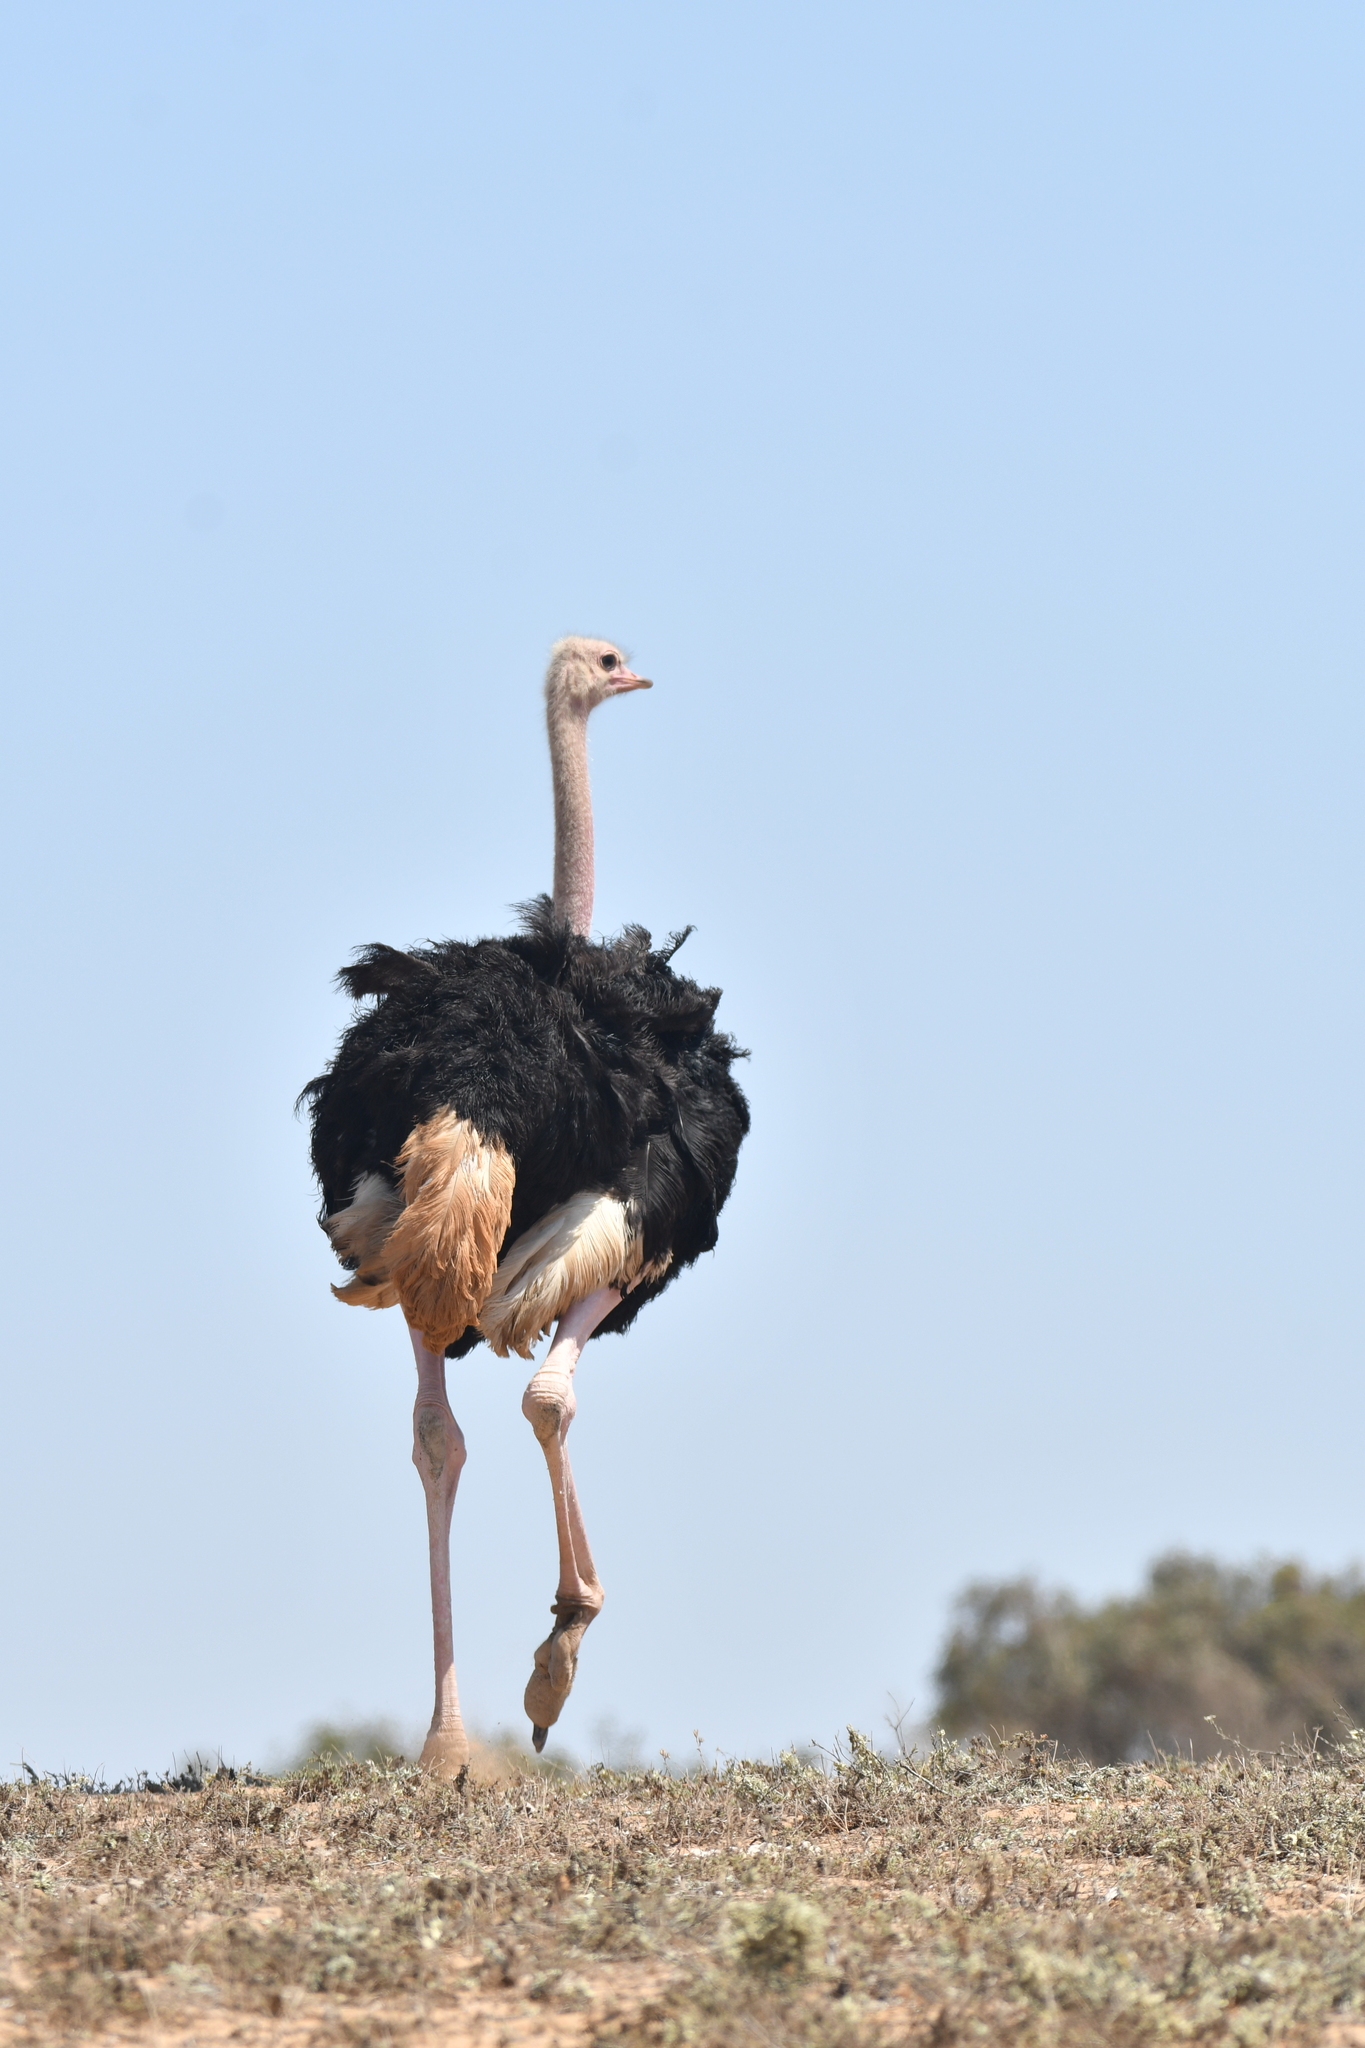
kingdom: Animalia
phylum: Chordata
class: Aves
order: Struthioniformes
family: Struthionidae
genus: Struthio
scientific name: Struthio camelus
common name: Common ostrich
